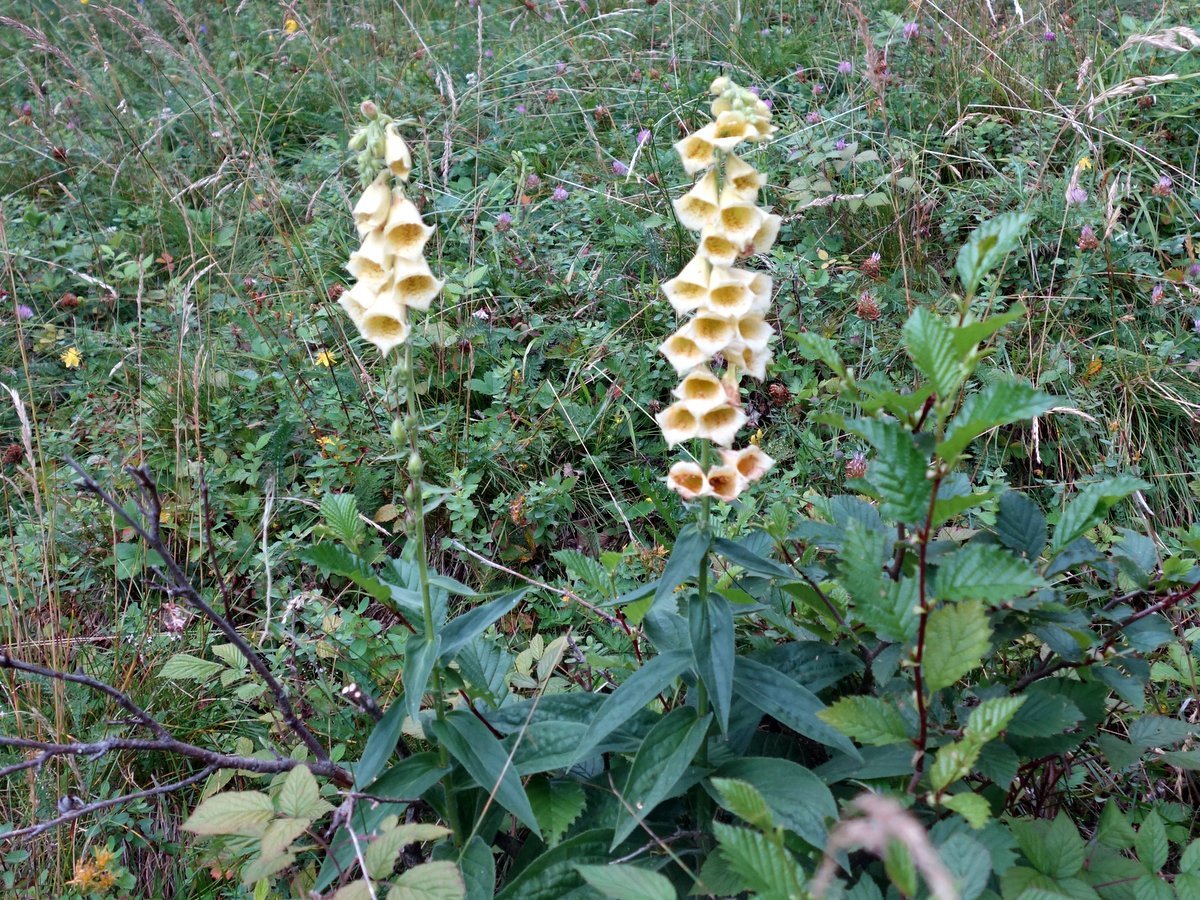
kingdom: Plantae
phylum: Tracheophyta
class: Magnoliopsida
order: Lamiales
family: Plantaginaceae
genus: Digitalis
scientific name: Digitalis grandiflora
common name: Yellow foxglove
